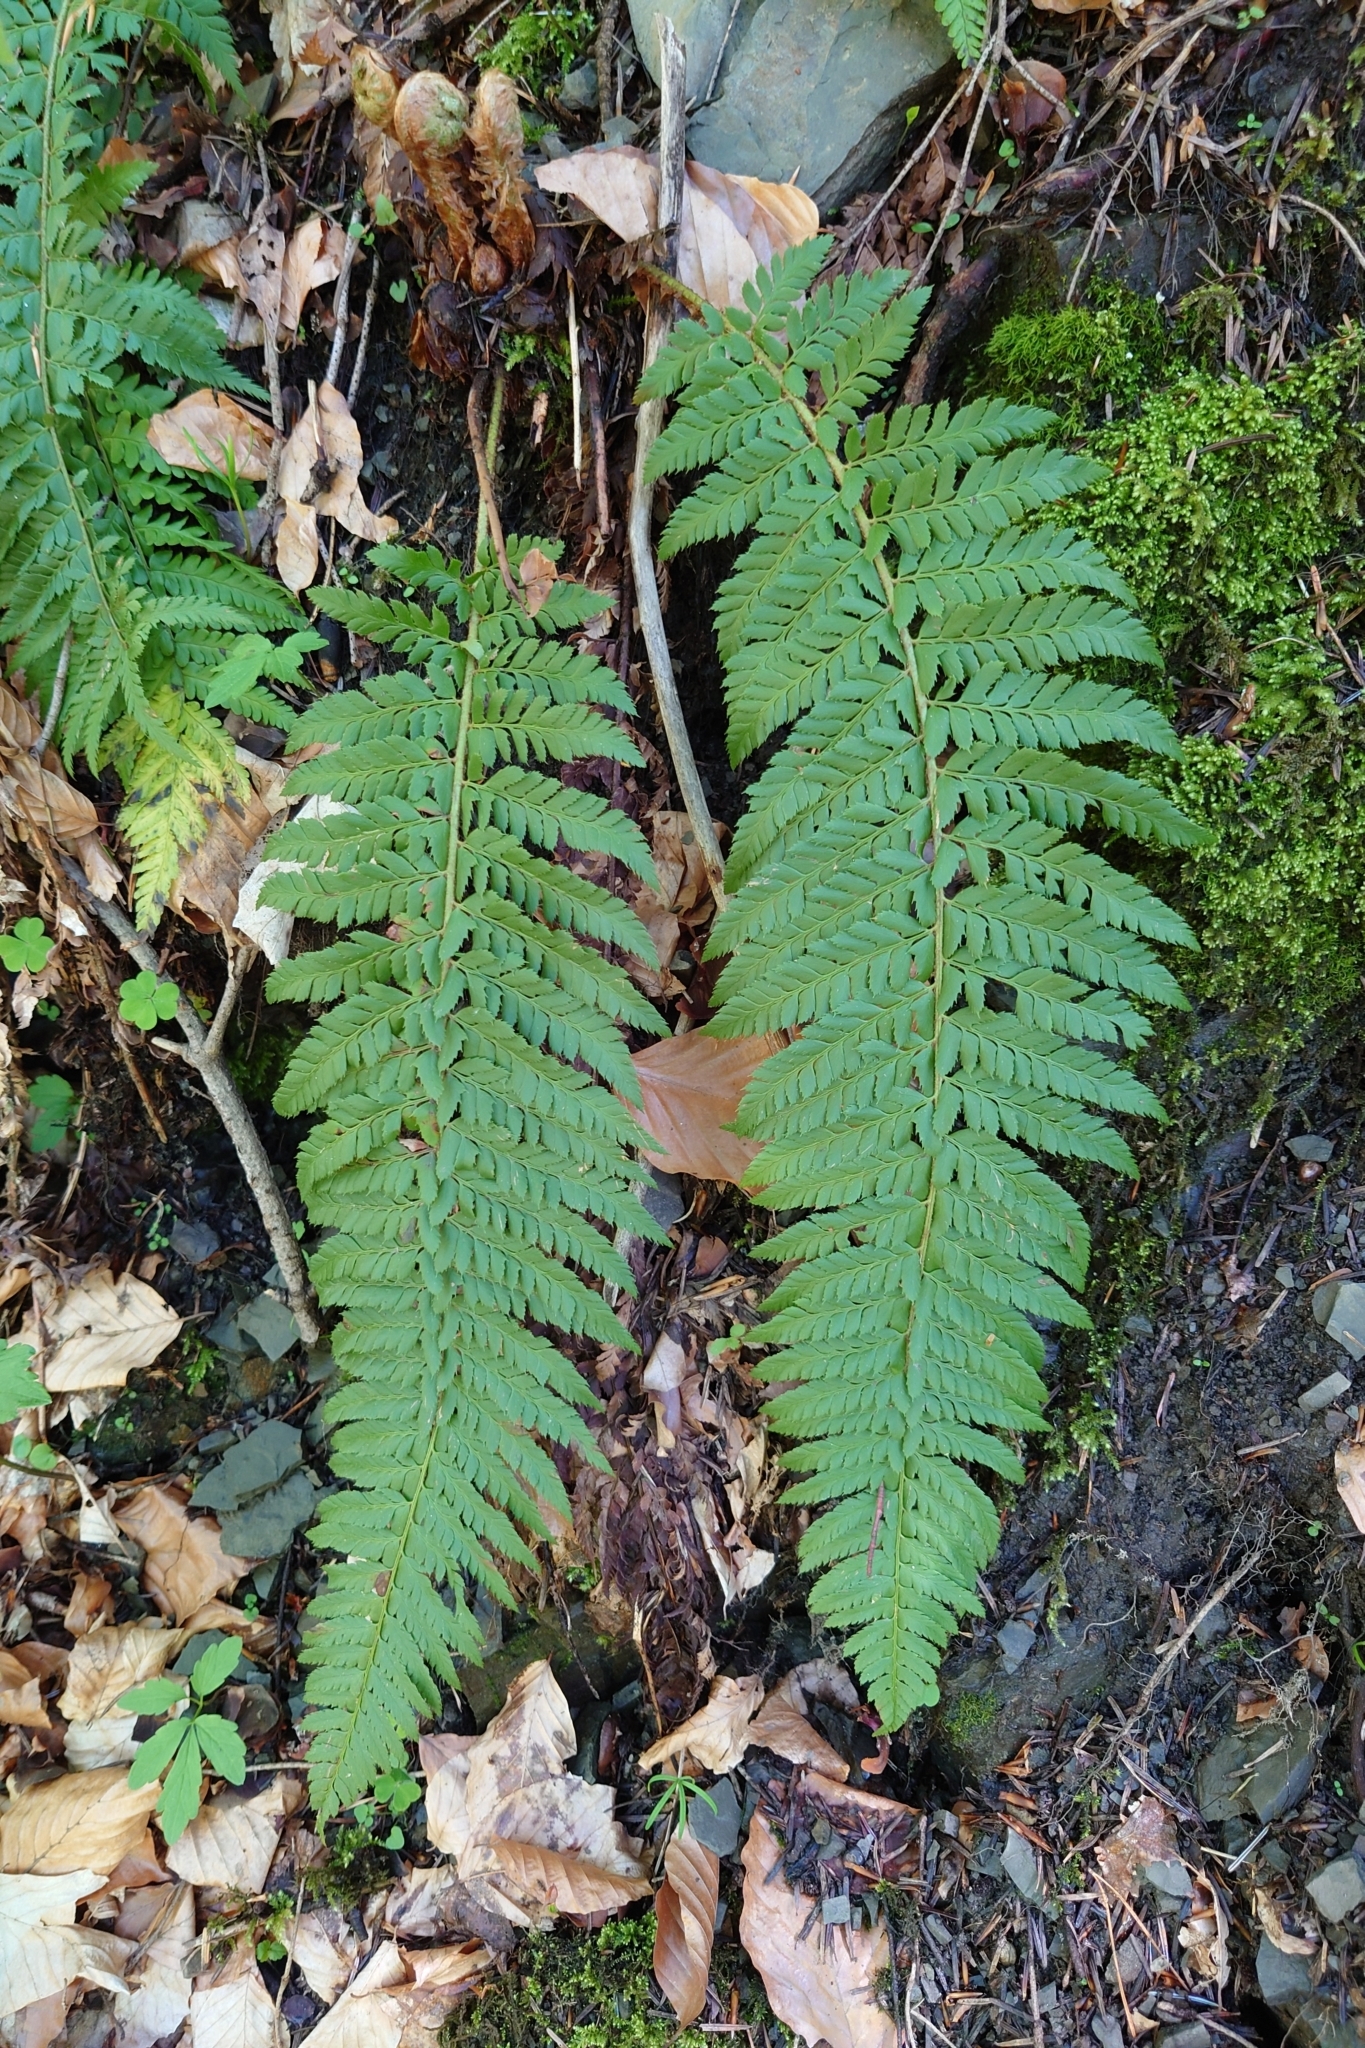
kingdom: Plantae
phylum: Tracheophyta
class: Polypodiopsida
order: Polypodiales
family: Dryopteridaceae
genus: Polystichum
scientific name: Polystichum aculeatum
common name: Hard shield-fern
